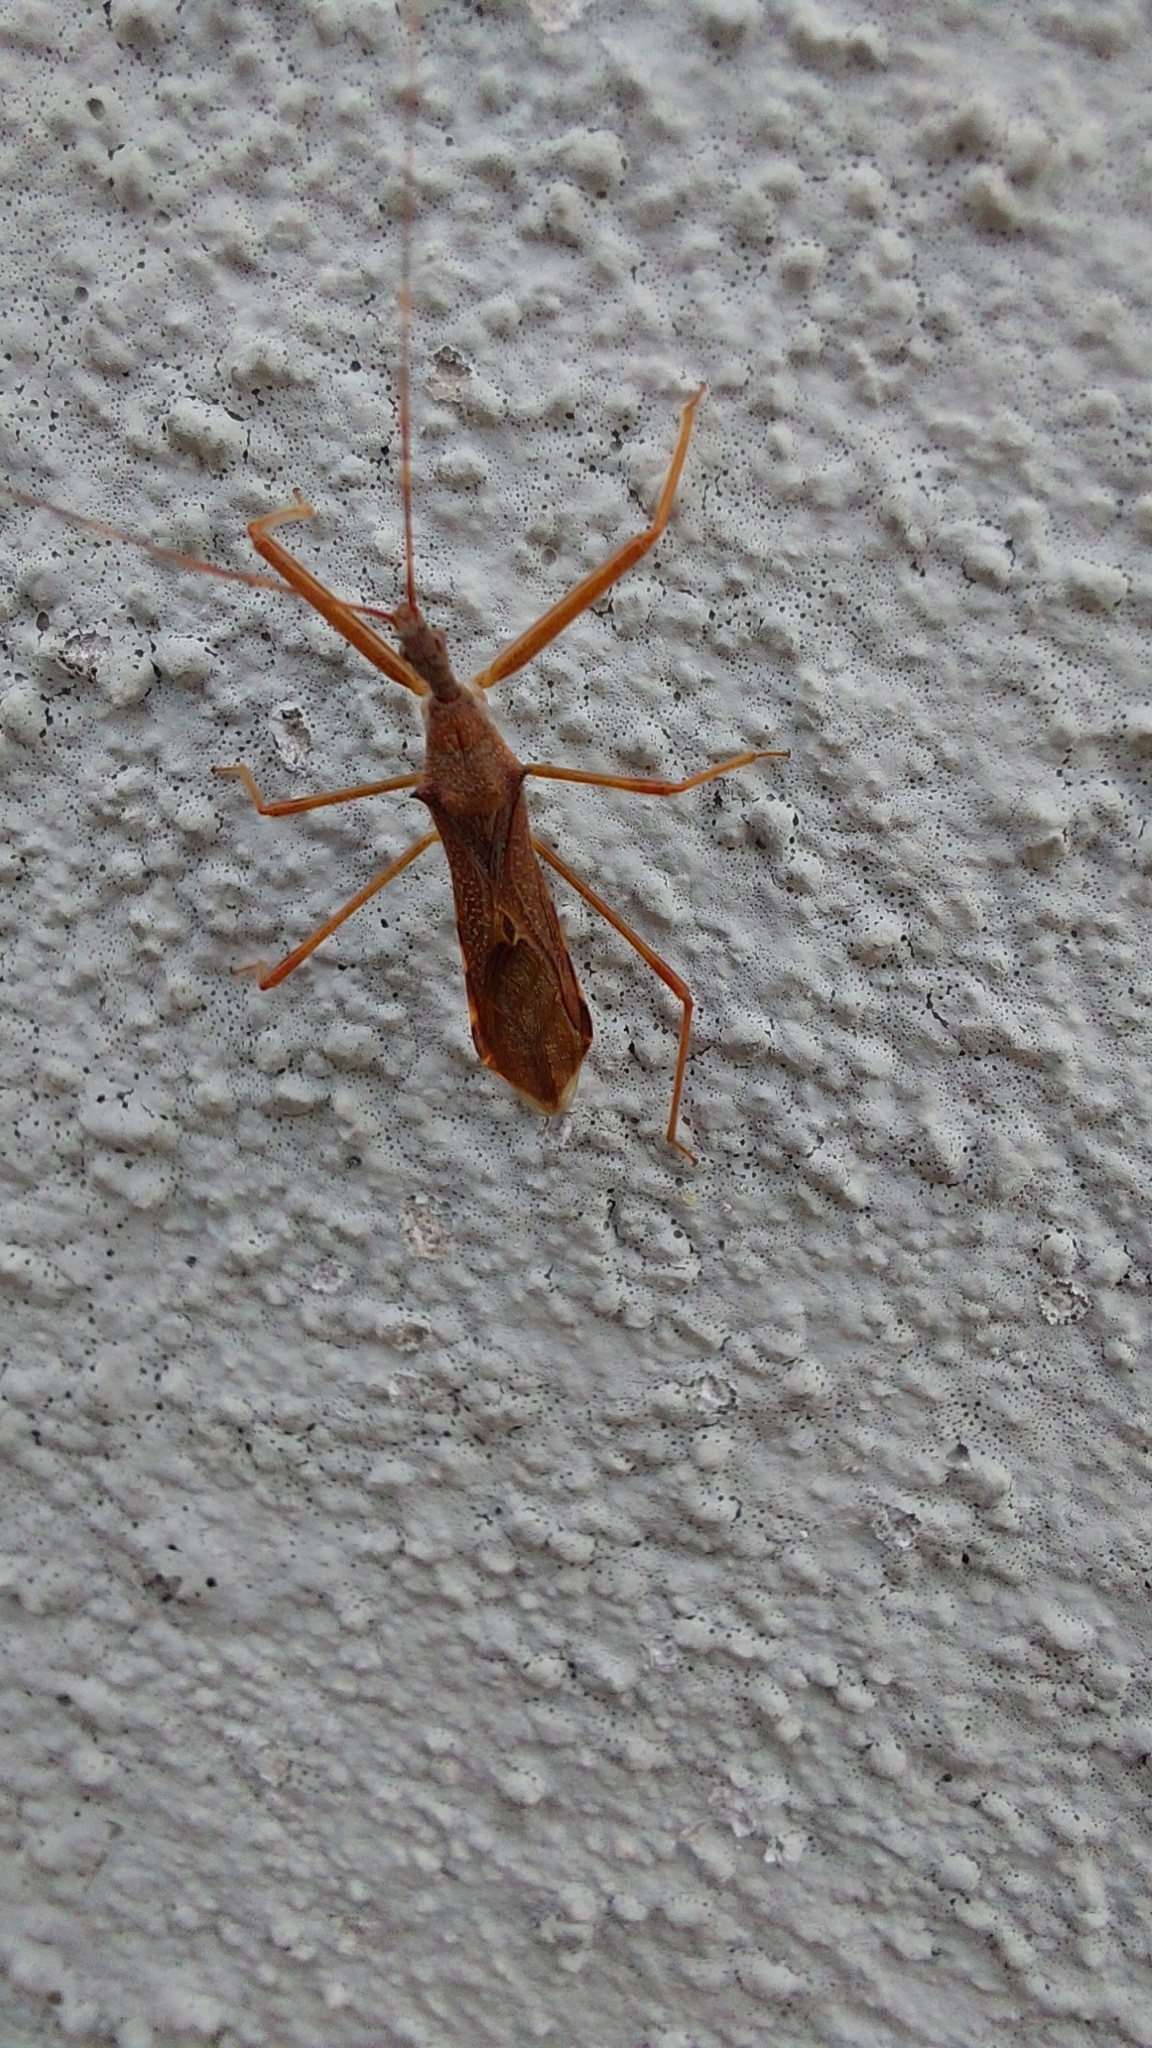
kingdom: Animalia
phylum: Arthropoda
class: Insecta
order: Hemiptera
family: Reduviidae
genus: Nagusta
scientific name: Nagusta goedelii
